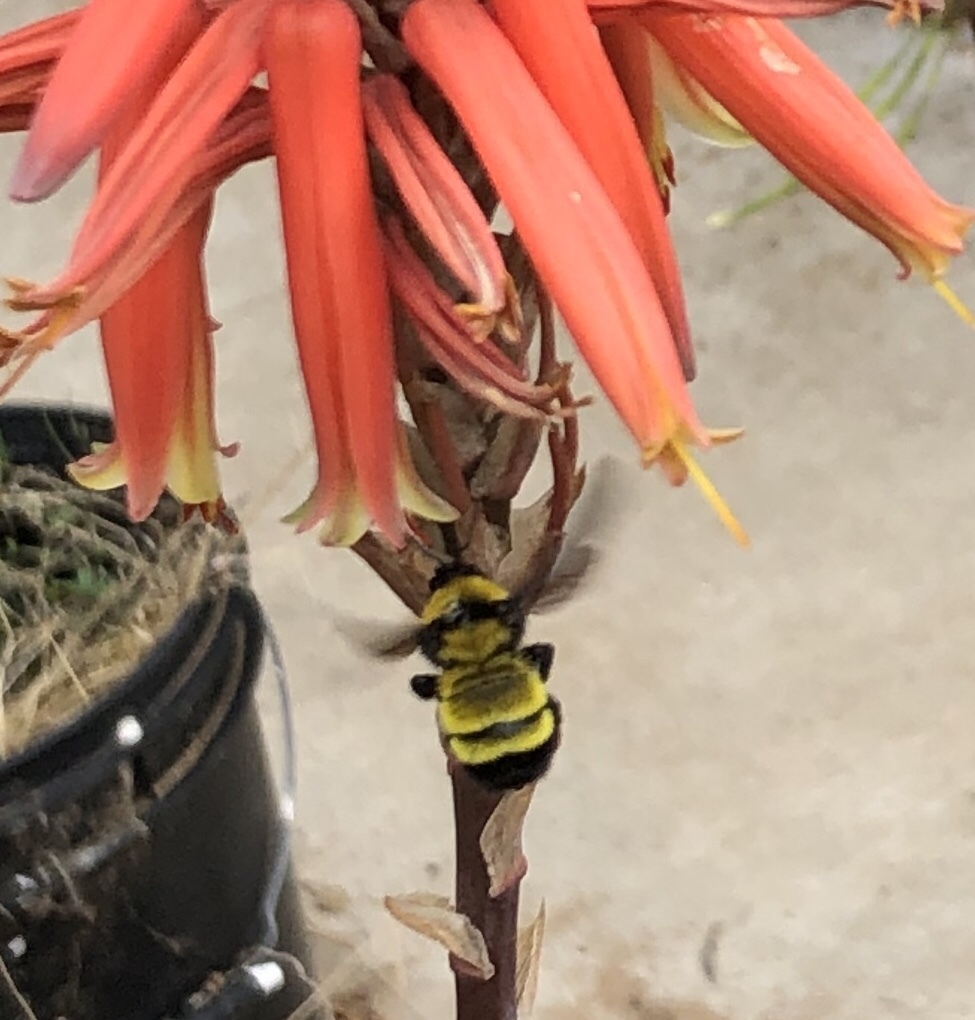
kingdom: Animalia
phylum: Arthropoda
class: Insecta
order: Hymenoptera
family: Apidae
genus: Bombus
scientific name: Bombus sonorus
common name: Sonoran bumble bee
